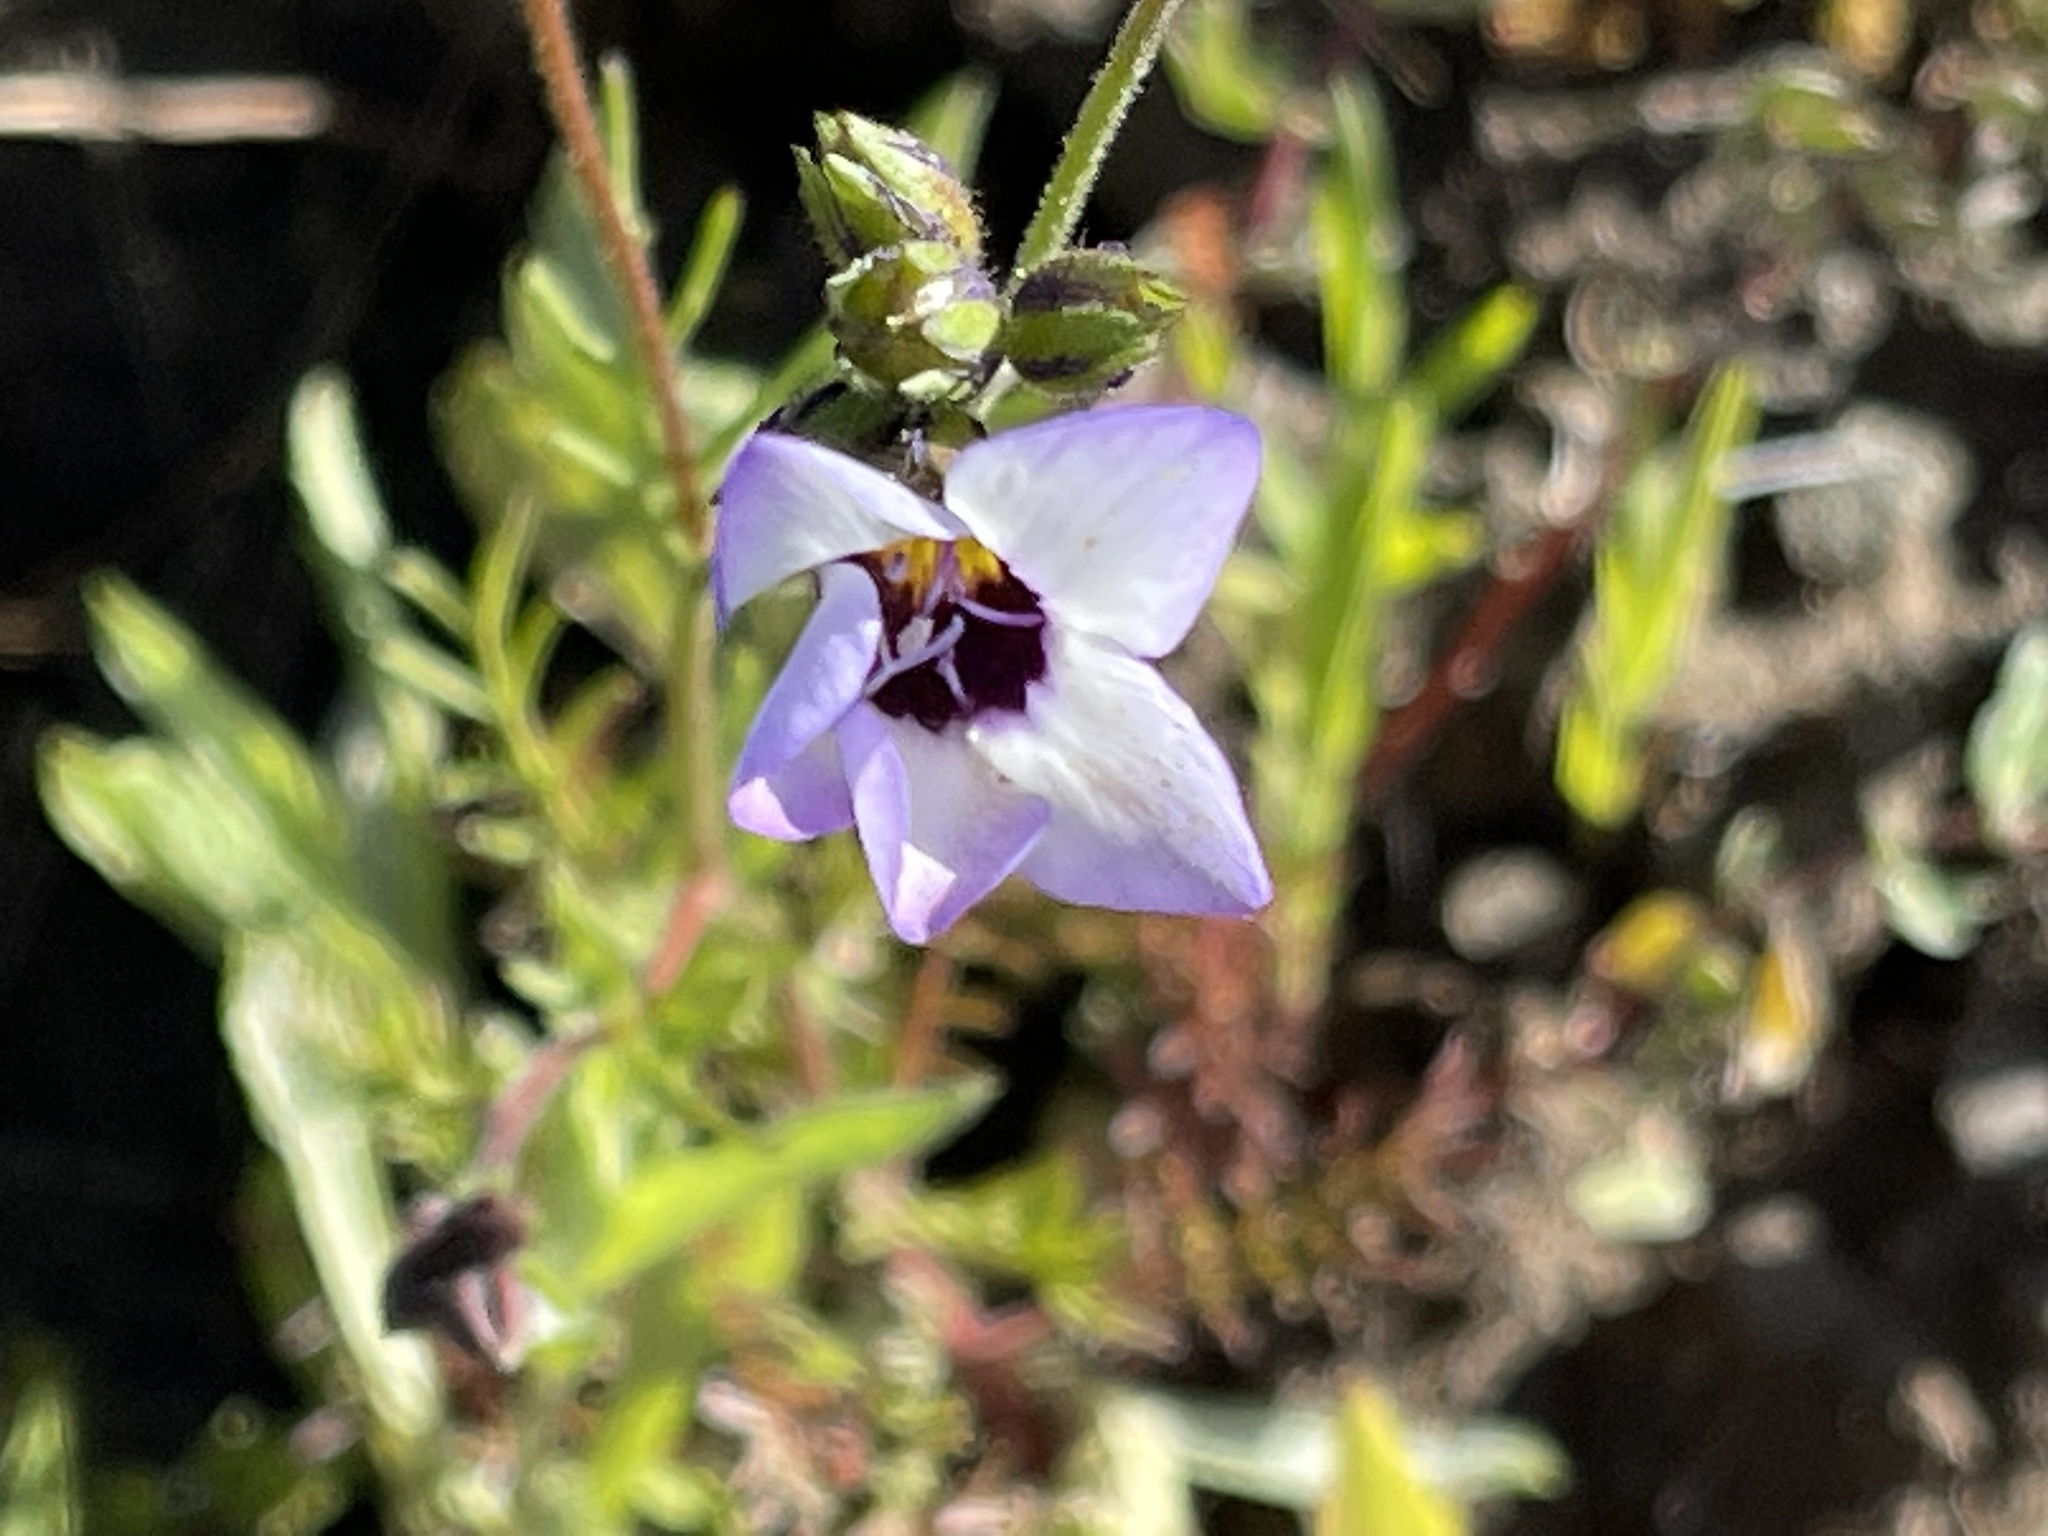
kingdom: Plantae
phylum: Tracheophyta
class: Magnoliopsida
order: Ericales
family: Polemoniaceae
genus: Gilia
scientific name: Gilia tricolor
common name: Bird's-eyes
